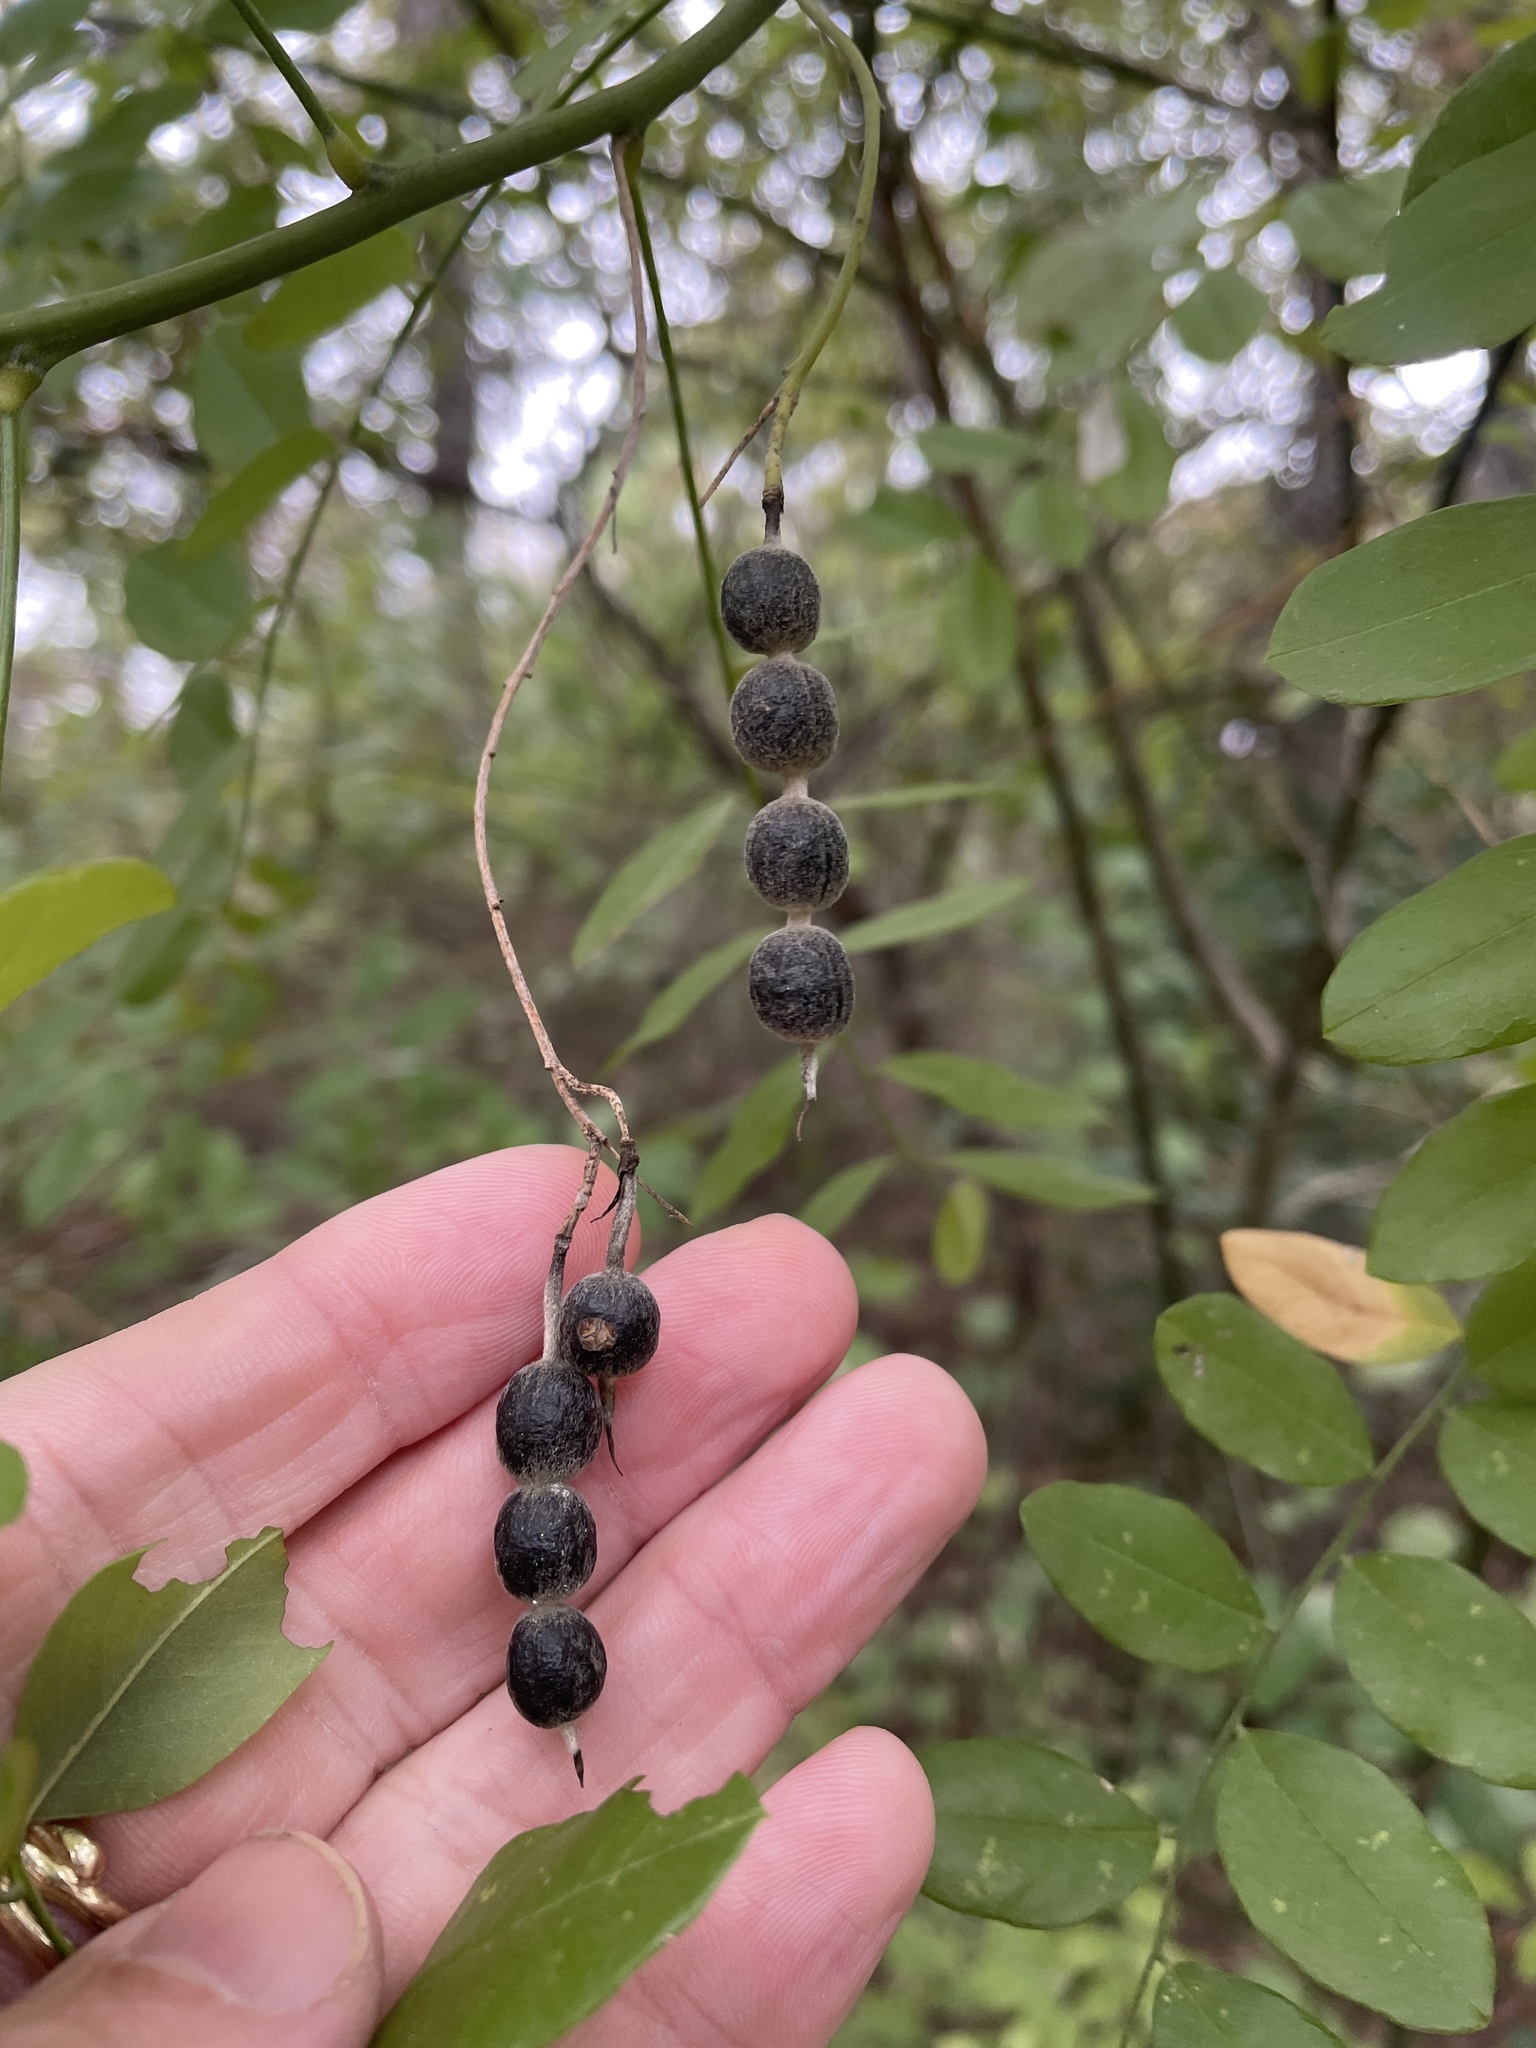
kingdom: Plantae
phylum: Tracheophyta
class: Magnoliopsida
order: Fabales
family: Fabaceae
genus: Styphnolobium
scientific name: Styphnolobium affine
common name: Texas sophora
